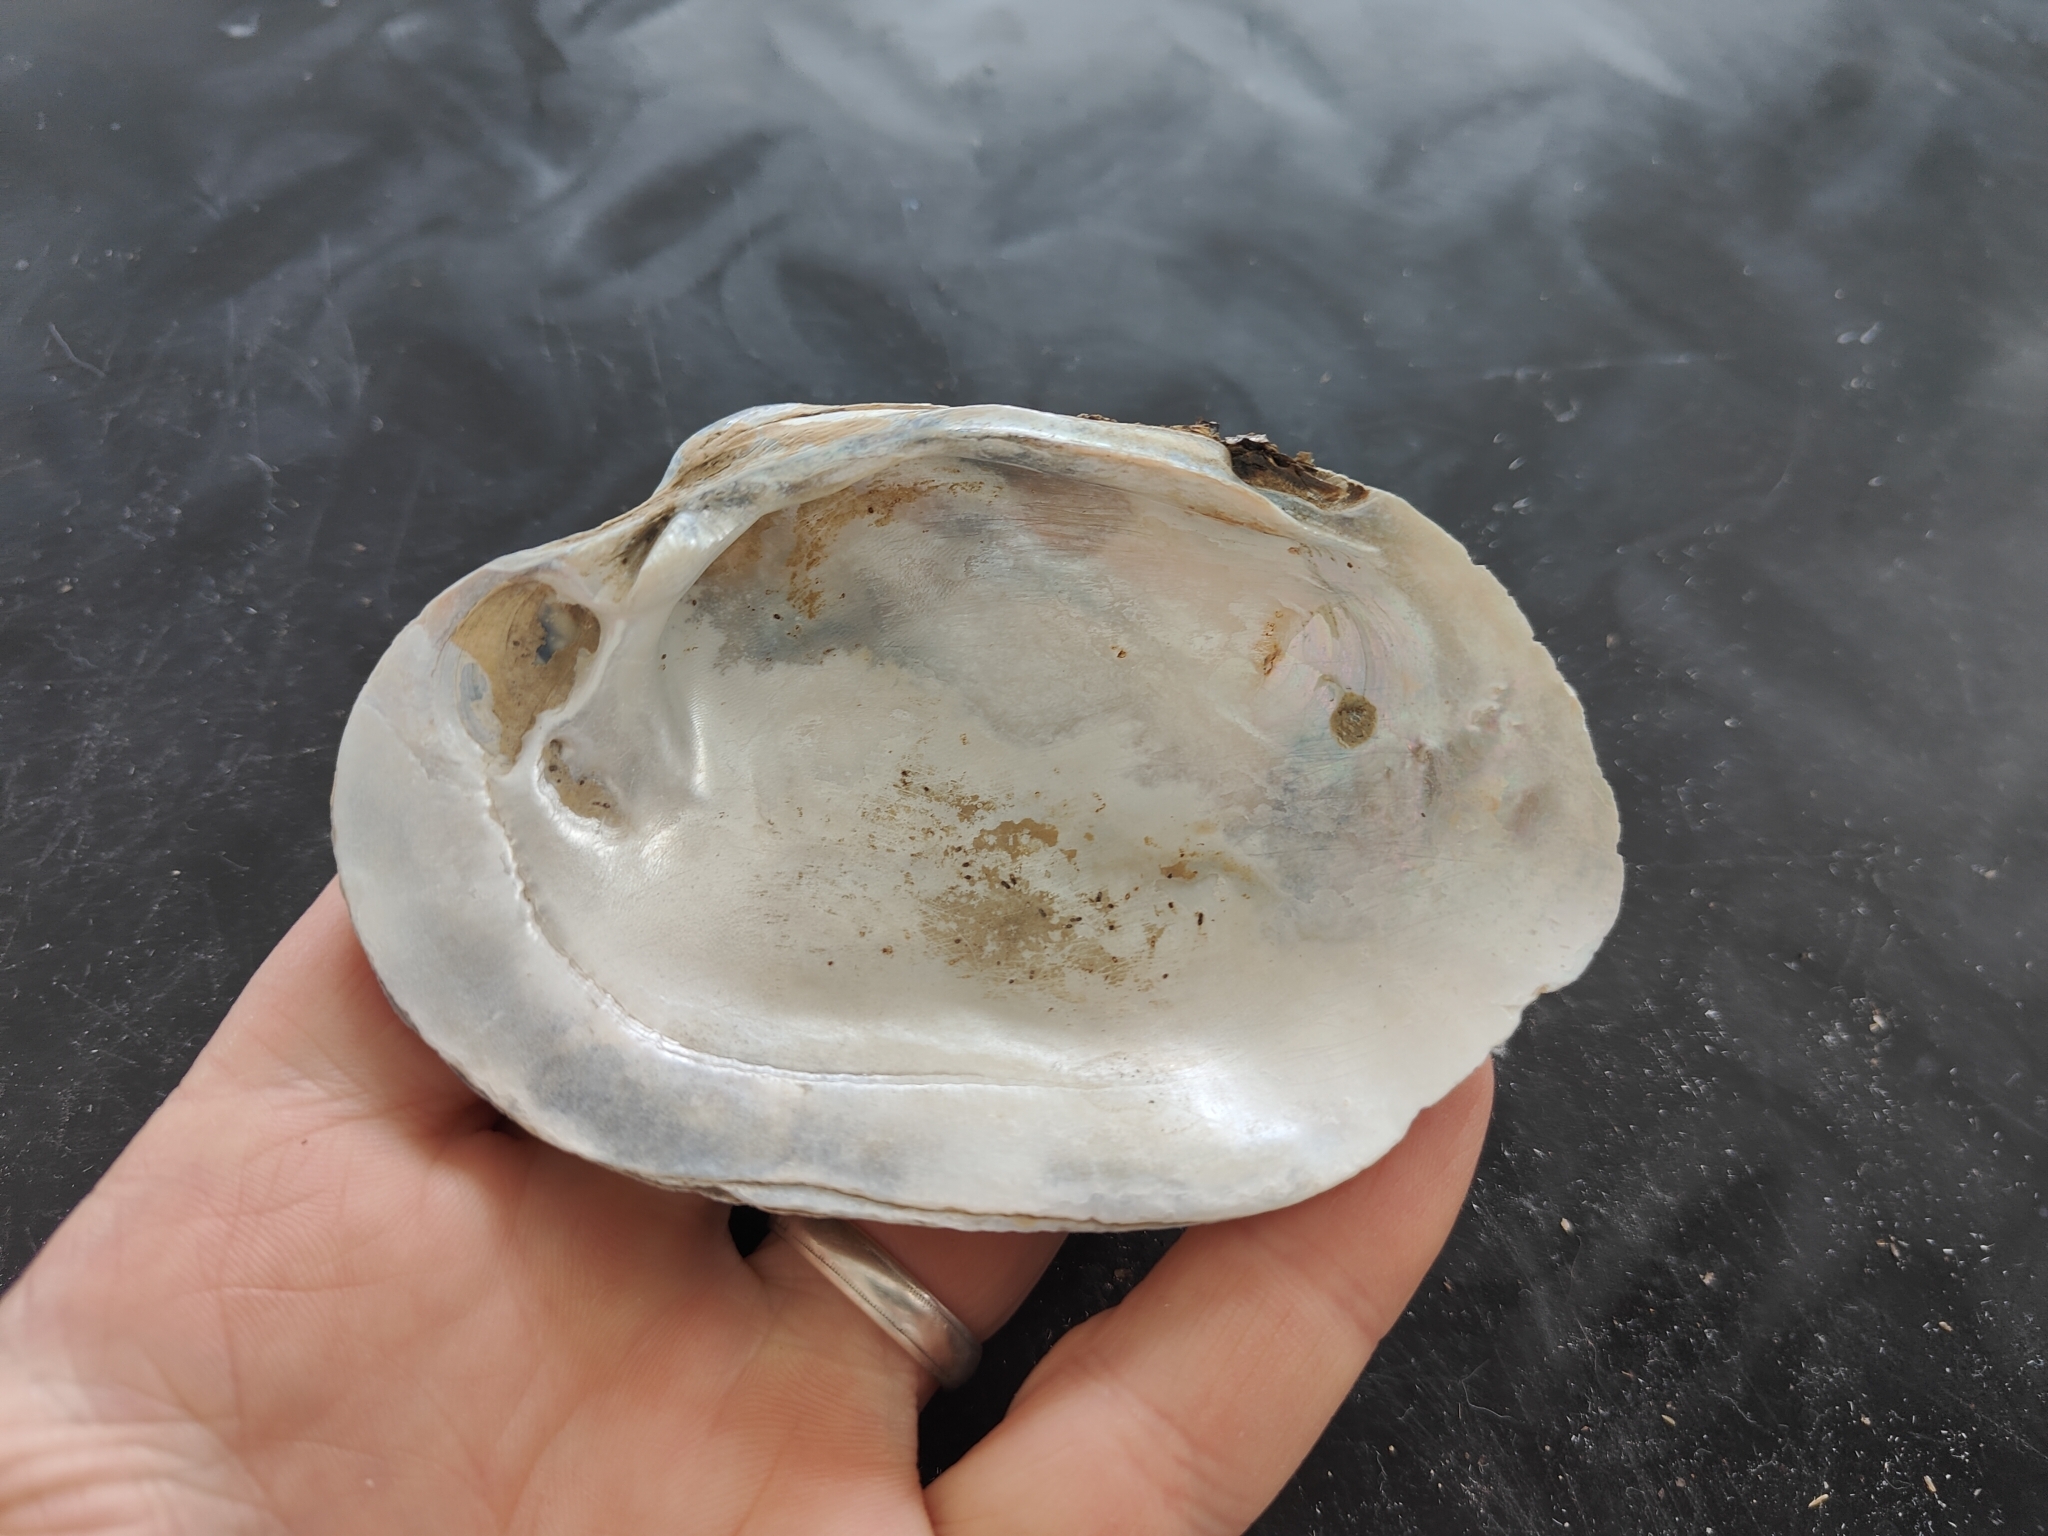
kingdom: Animalia
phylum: Mollusca
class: Bivalvia
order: Unionida
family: Unionidae
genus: Lampsilis
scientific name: Lampsilis cardium
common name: Plain pocketbook
